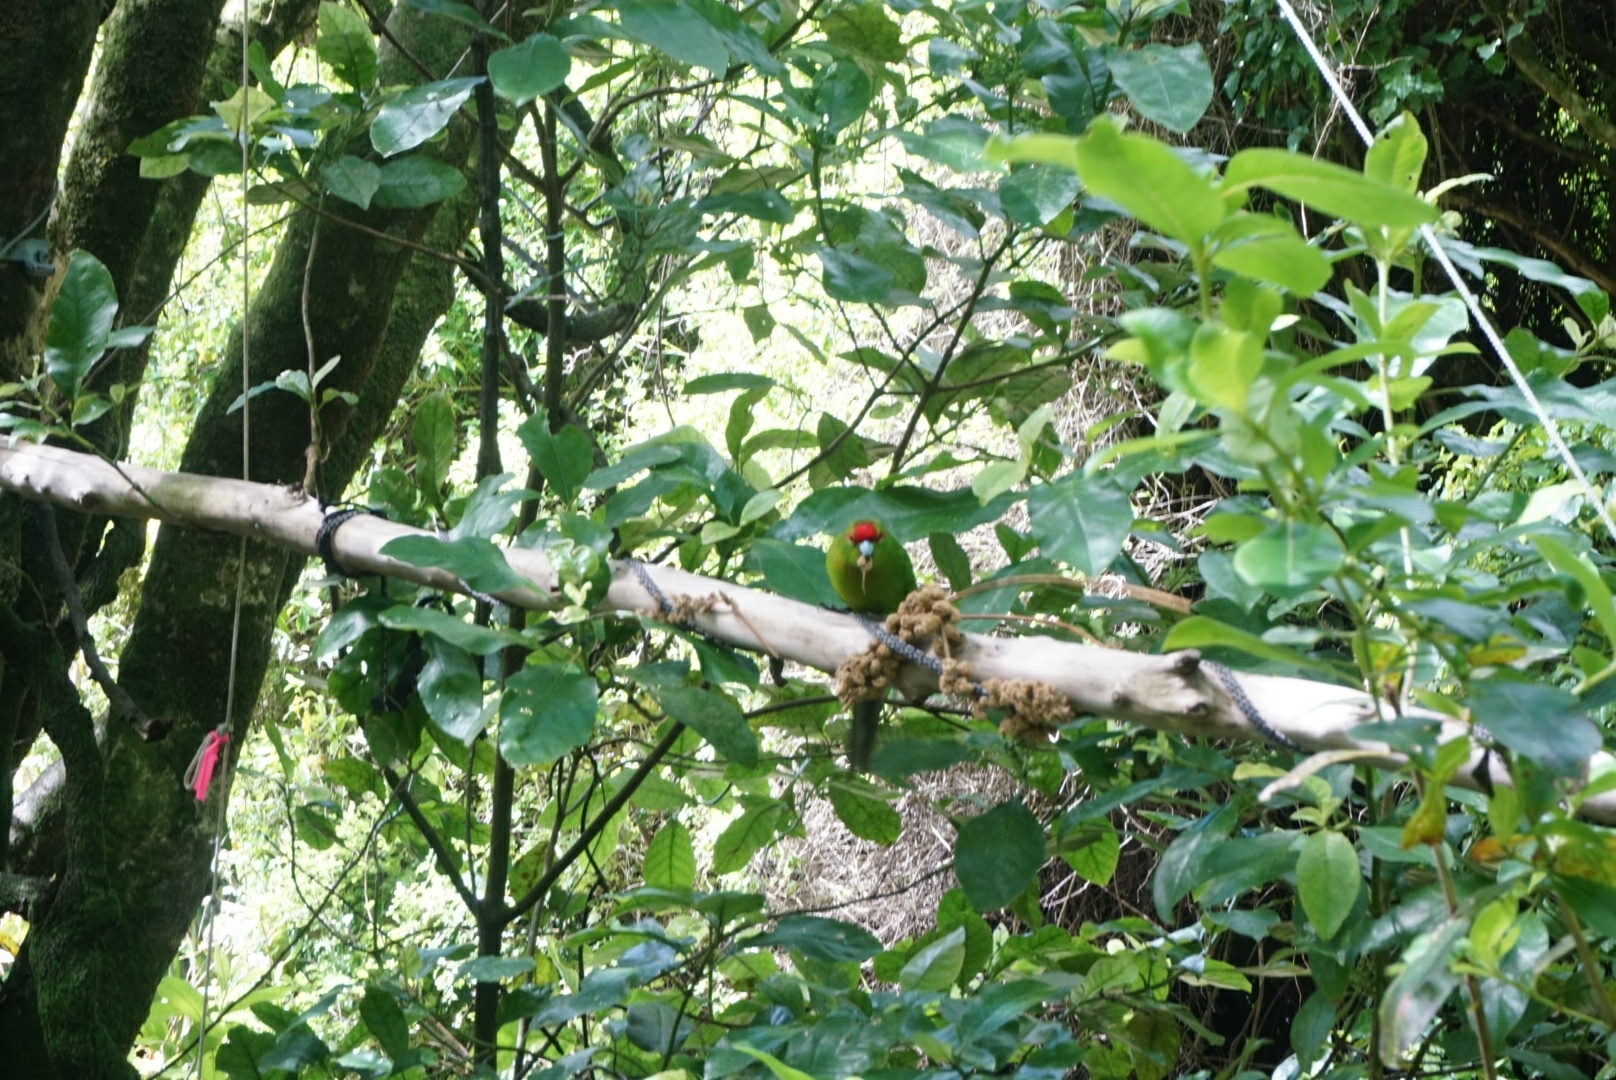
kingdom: Animalia
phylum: Chordata
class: Aves
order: Psittaciformes
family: Psittacidae
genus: Cyanoramphus
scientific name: Cyanoramphus novaezelandiae
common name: Red-fronted parakeet
